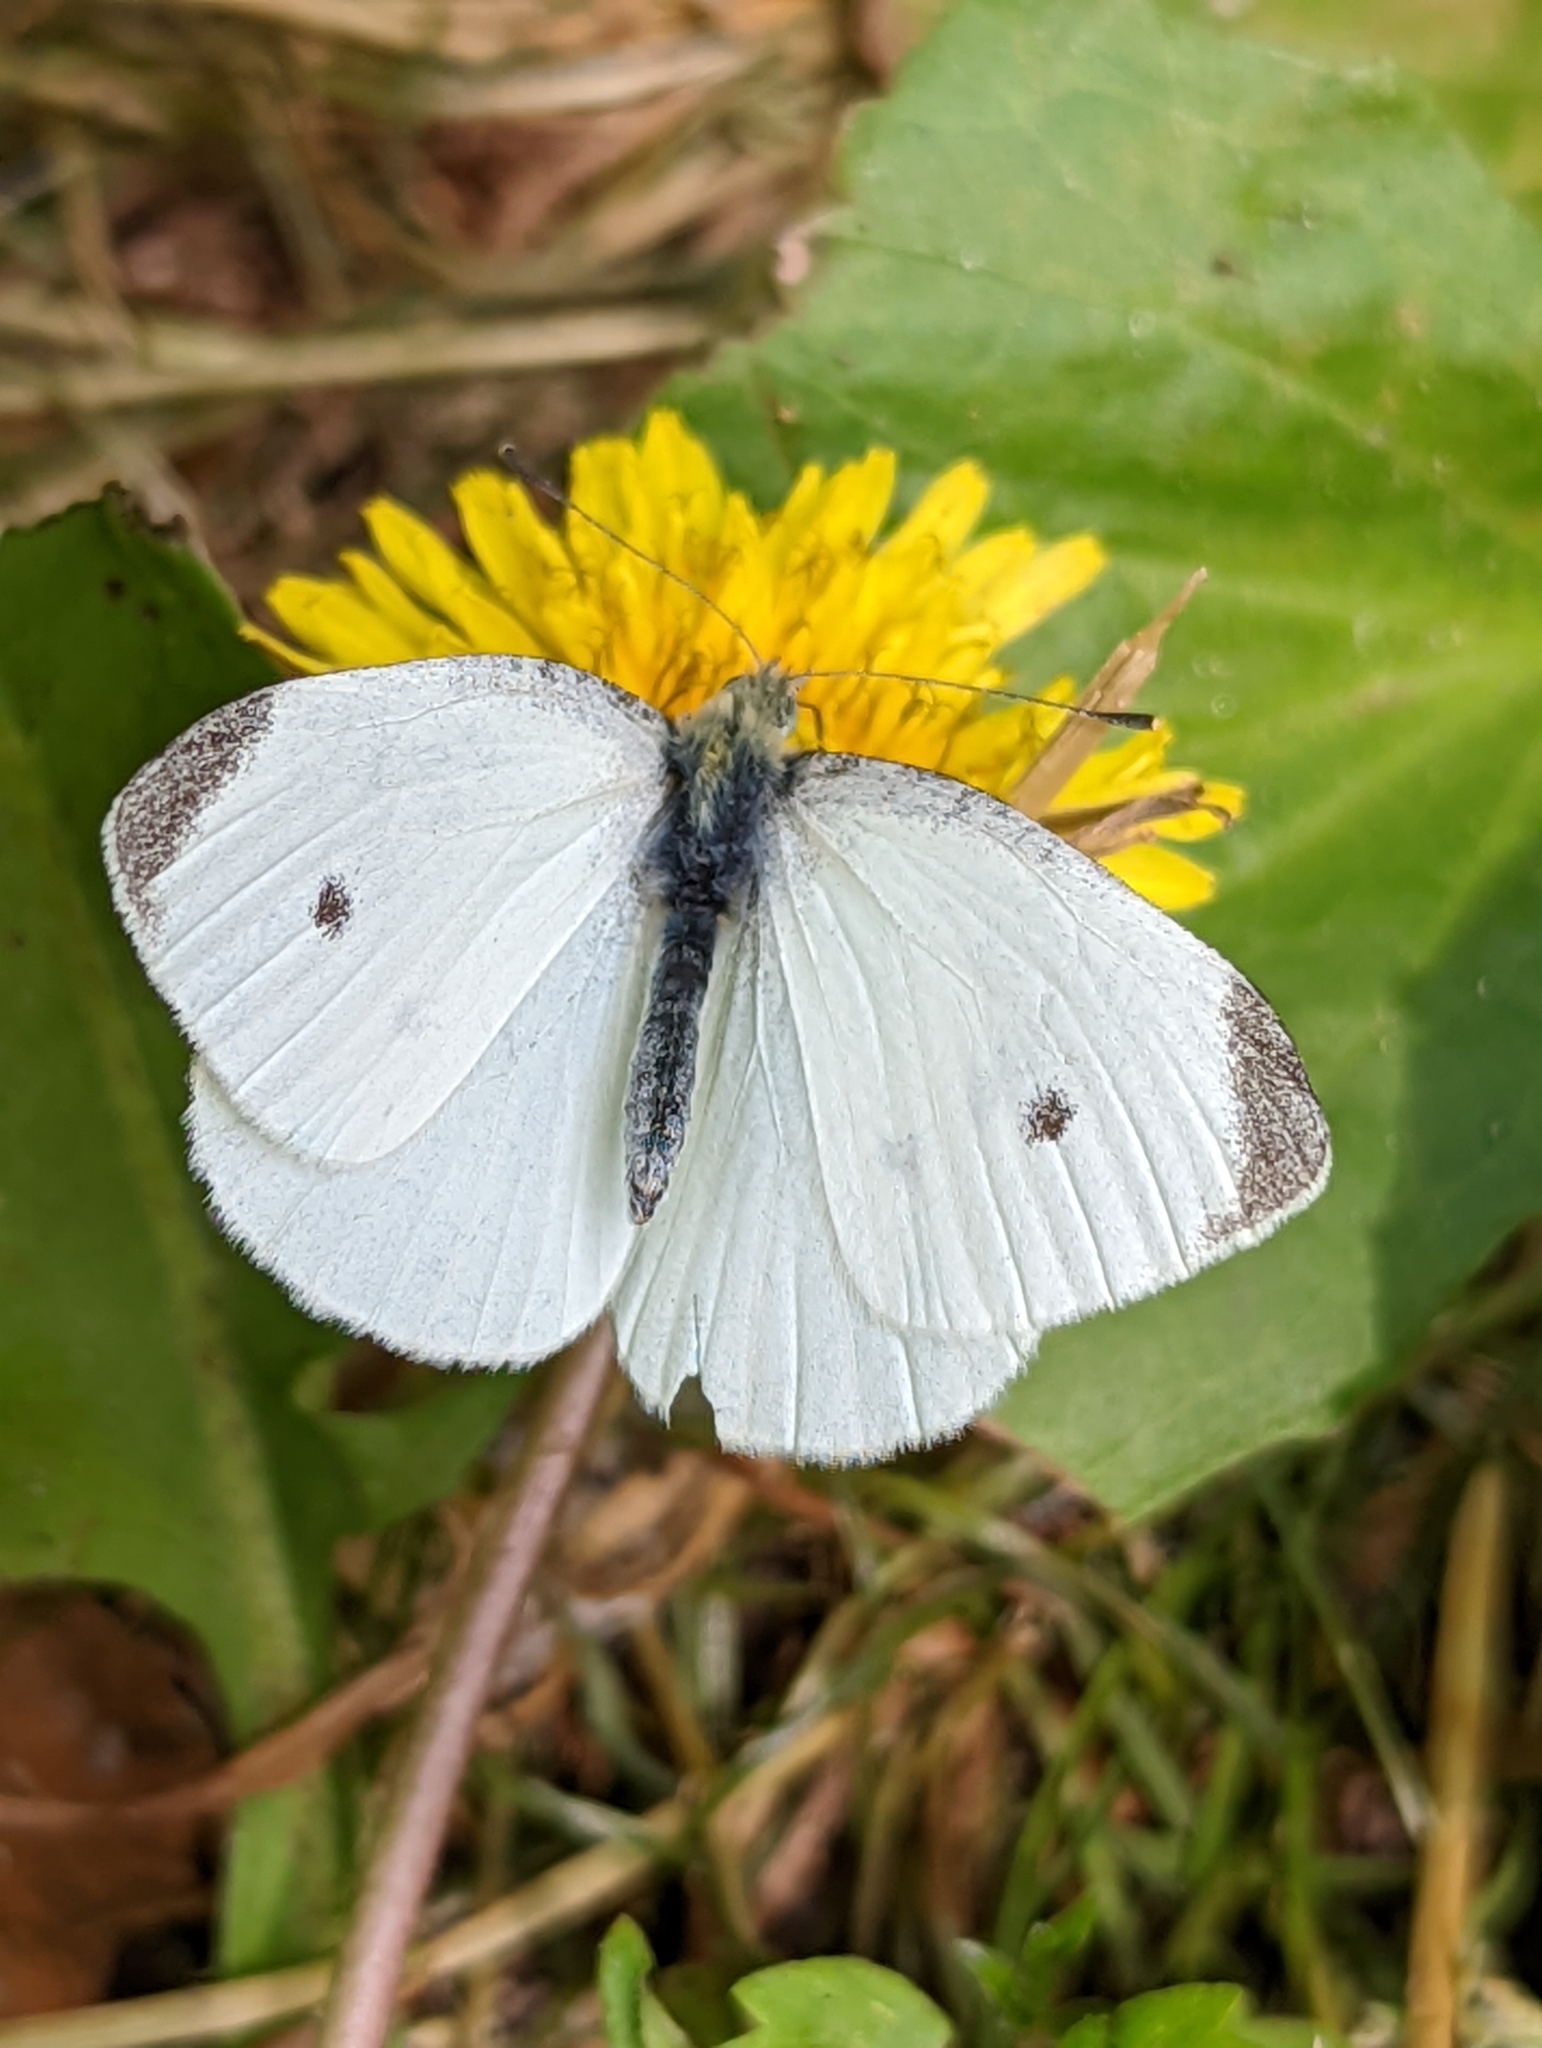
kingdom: Animalia
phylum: Arthropoda
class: Insecta
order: Lepidoptera
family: Pieridae
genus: Pieris
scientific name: Pieris rapae
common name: Small white
